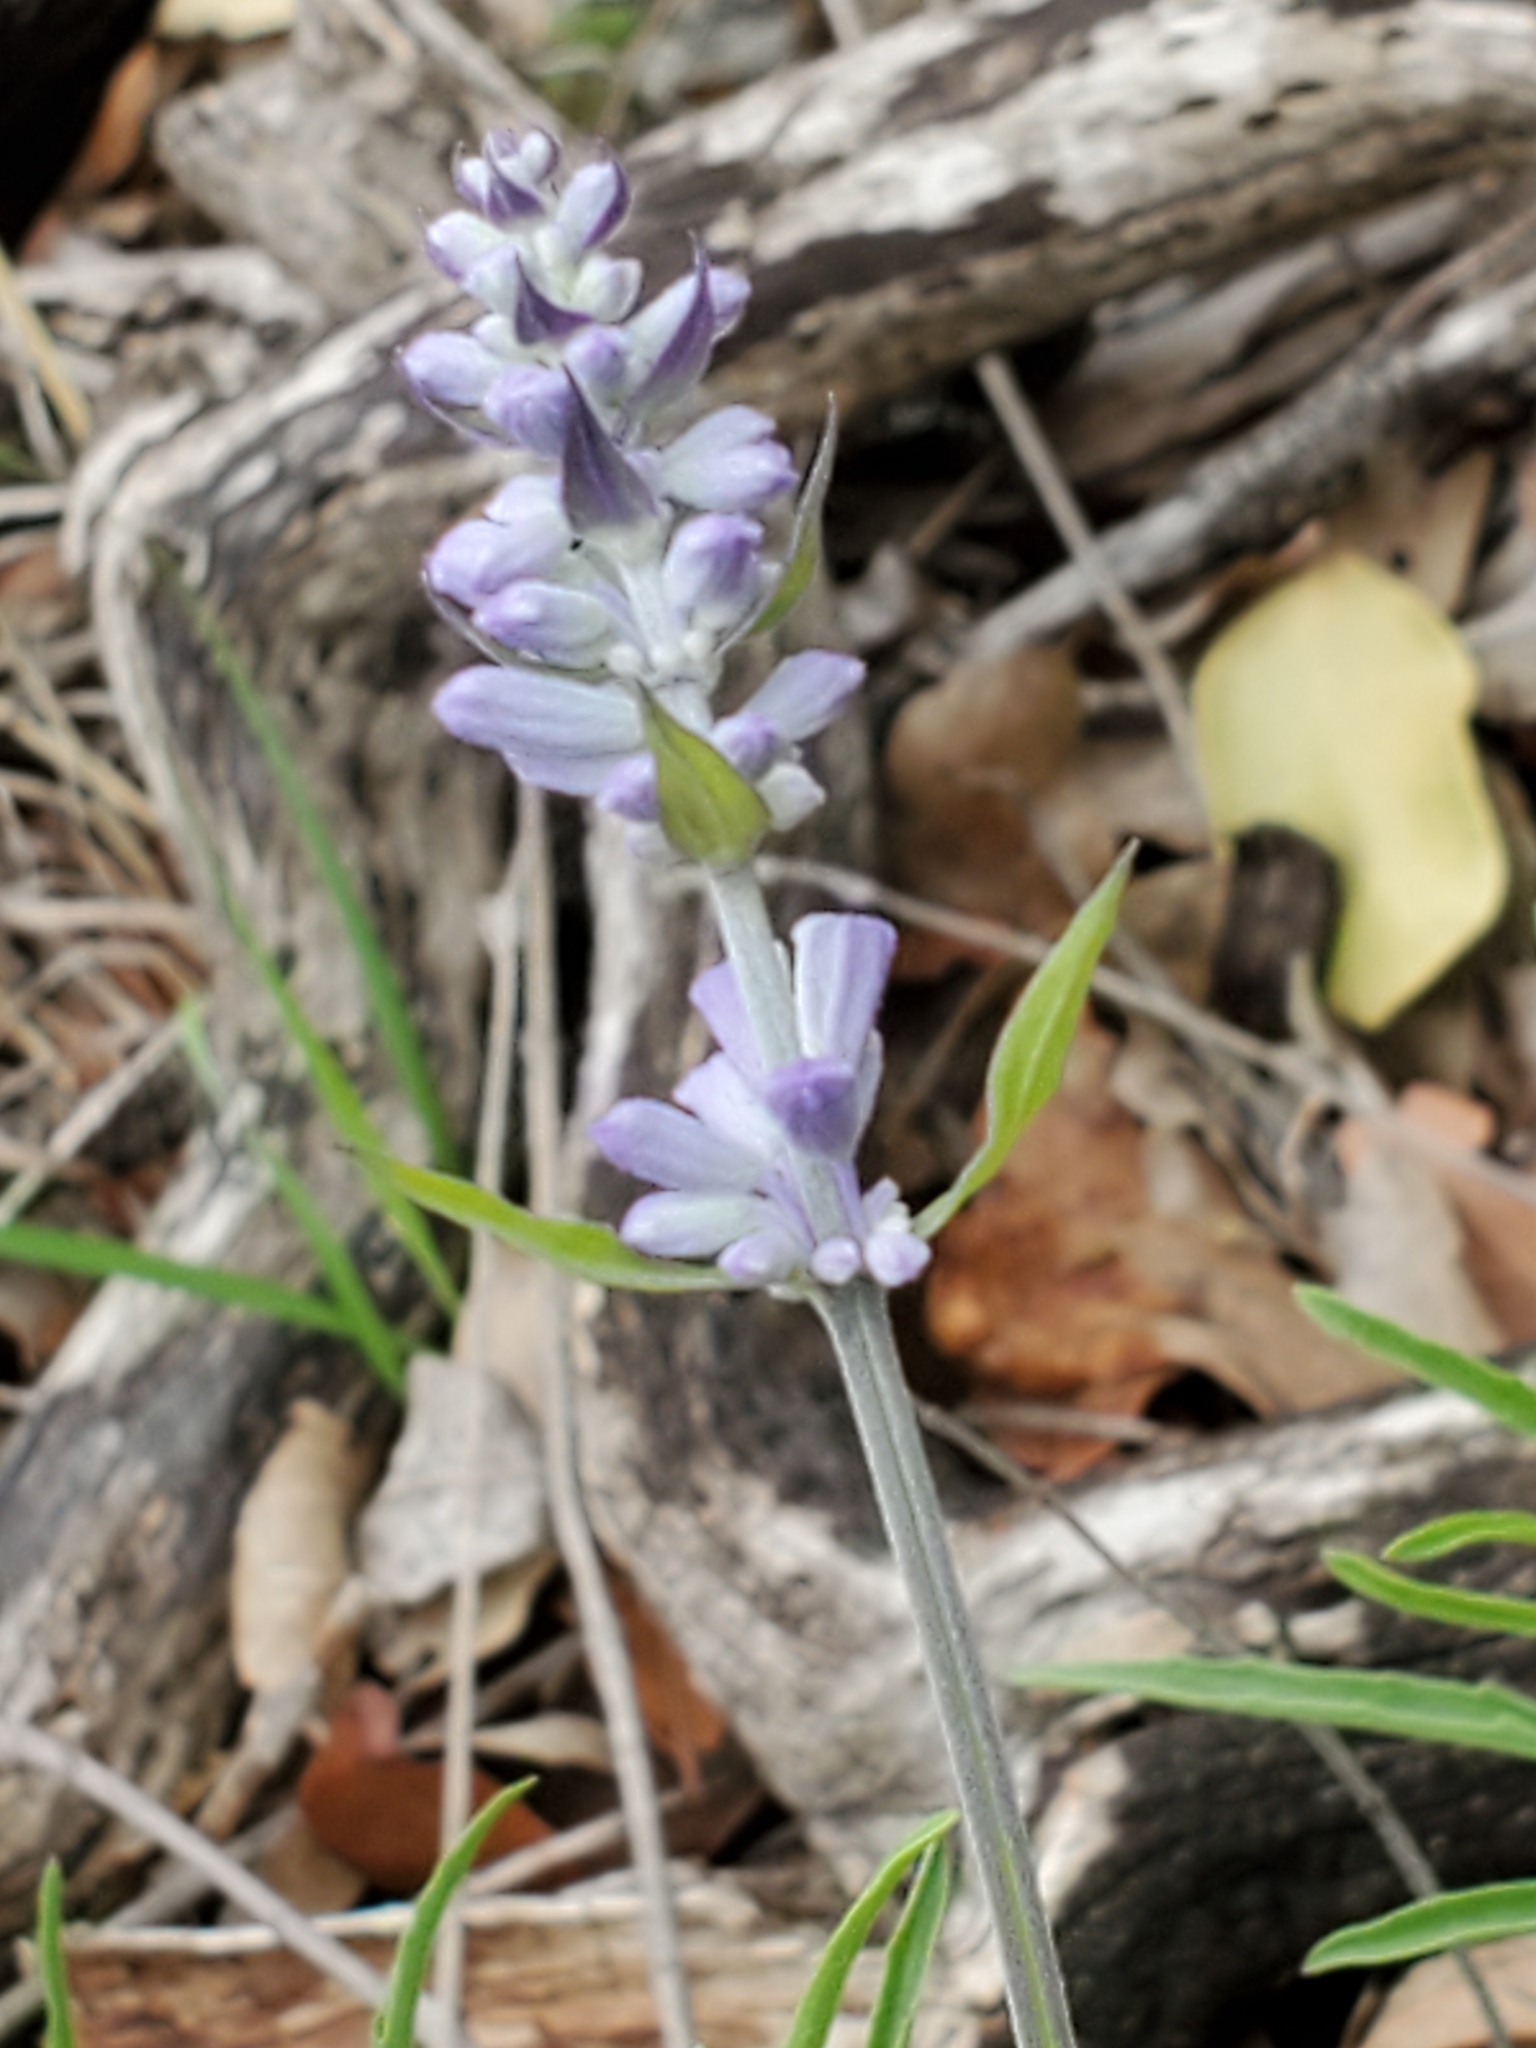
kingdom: Plantae
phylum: Tracheophyta
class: Magnoliopsida
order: Lamiales
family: Lamiaceae
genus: Salvia
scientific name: Salvia farinacea
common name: Mealy sage
